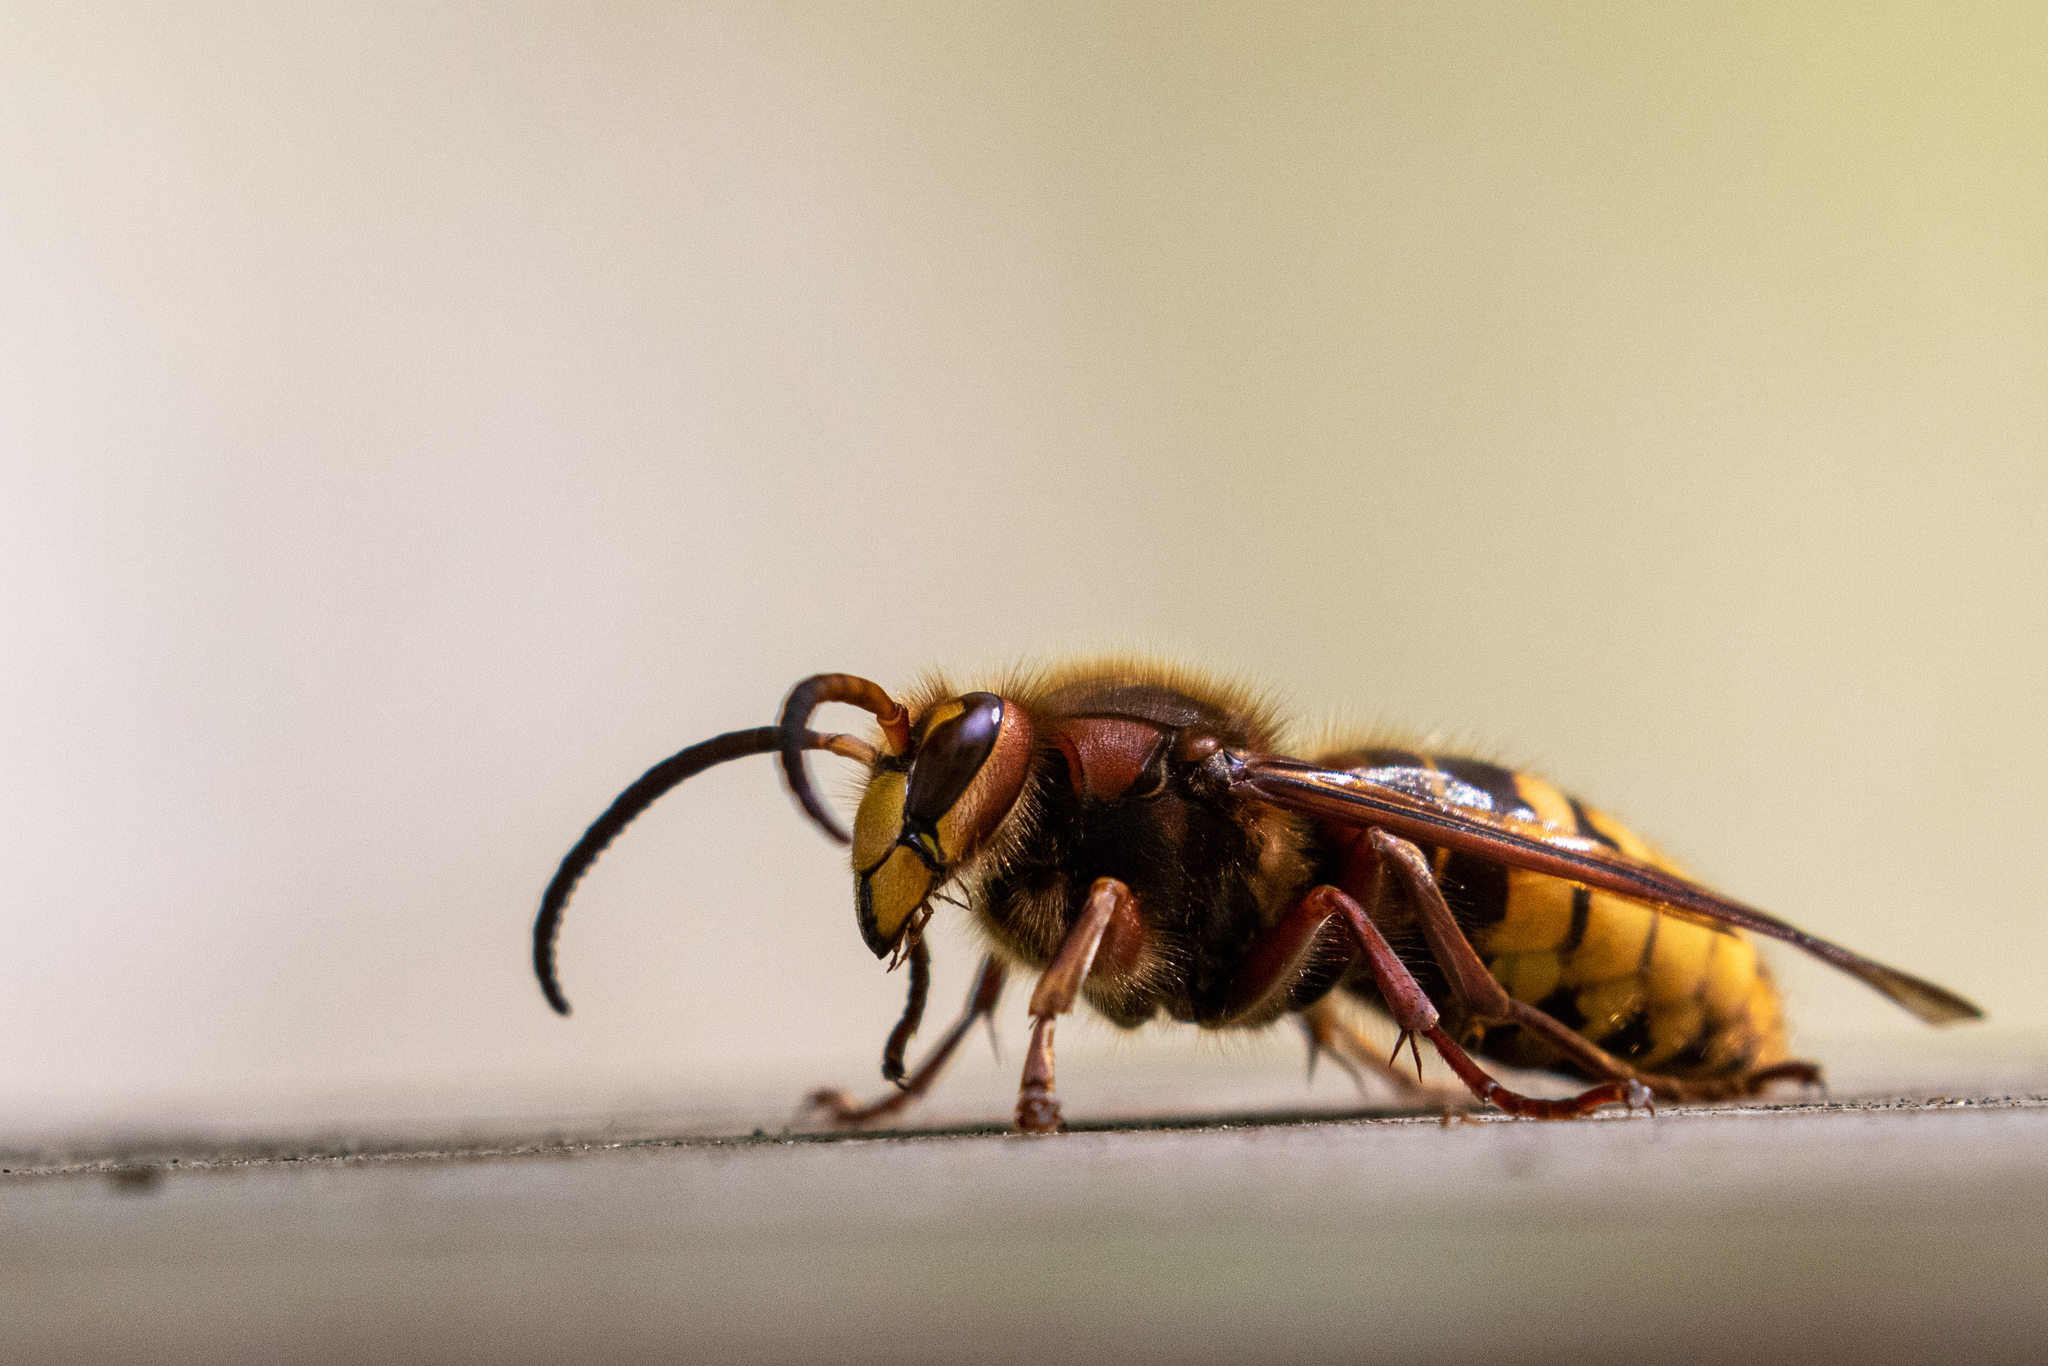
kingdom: Animalia
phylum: Arthropoda
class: Insecta
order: Hymenoptera
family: Vespidae
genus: Vespa
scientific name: Vespa crabro
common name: Hornet
